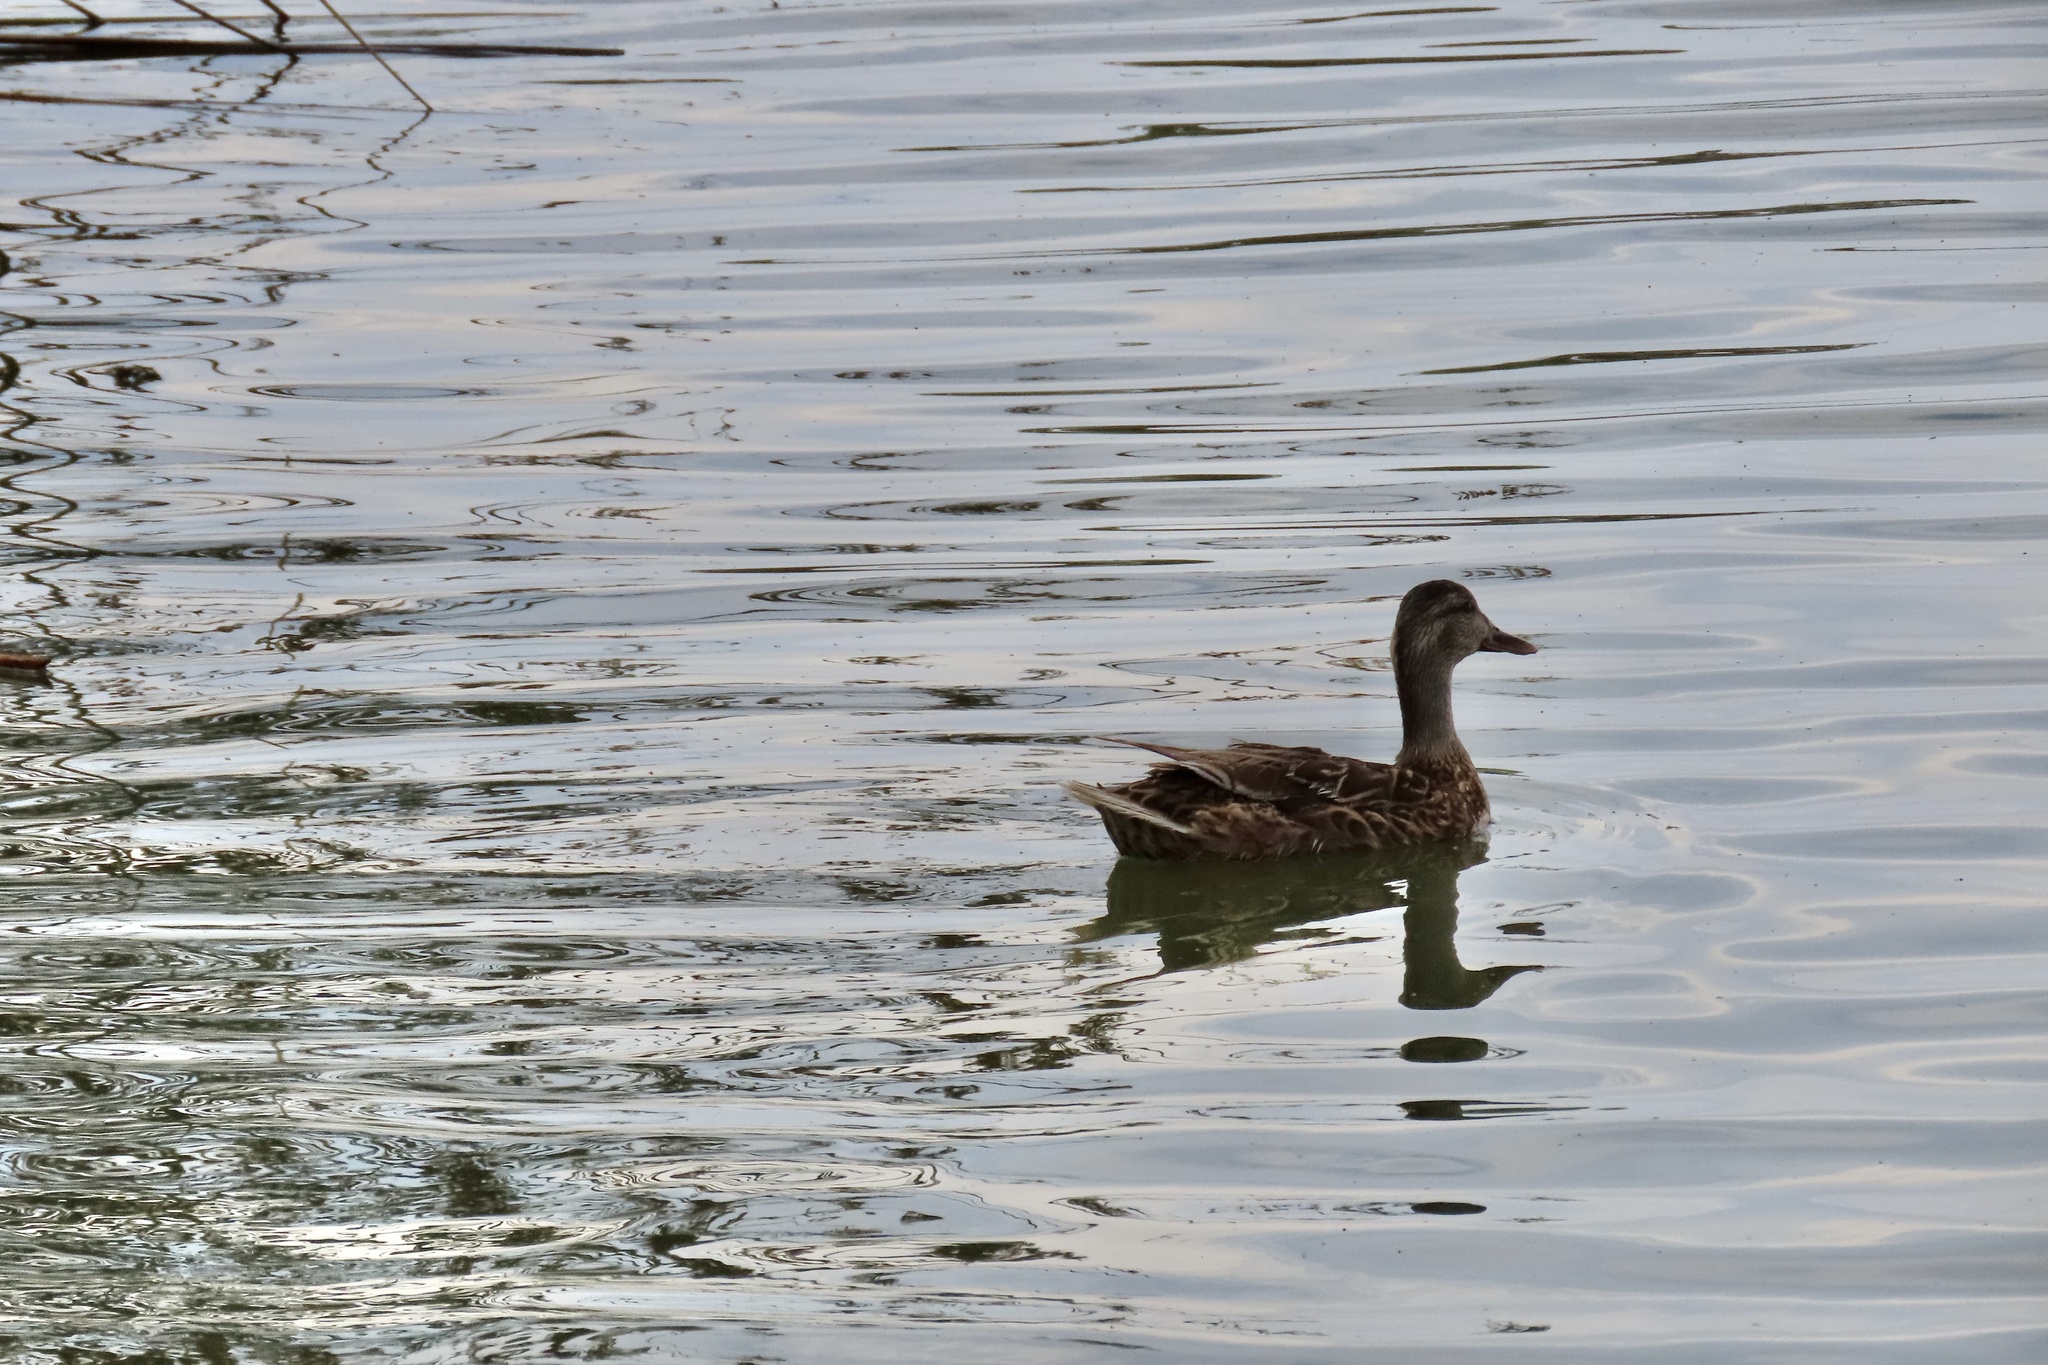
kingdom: Animalia
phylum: Chordata
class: Aves
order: Anseriformes
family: Anatidae
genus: Anas
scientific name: Anas platyrhynchos
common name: Mallard
